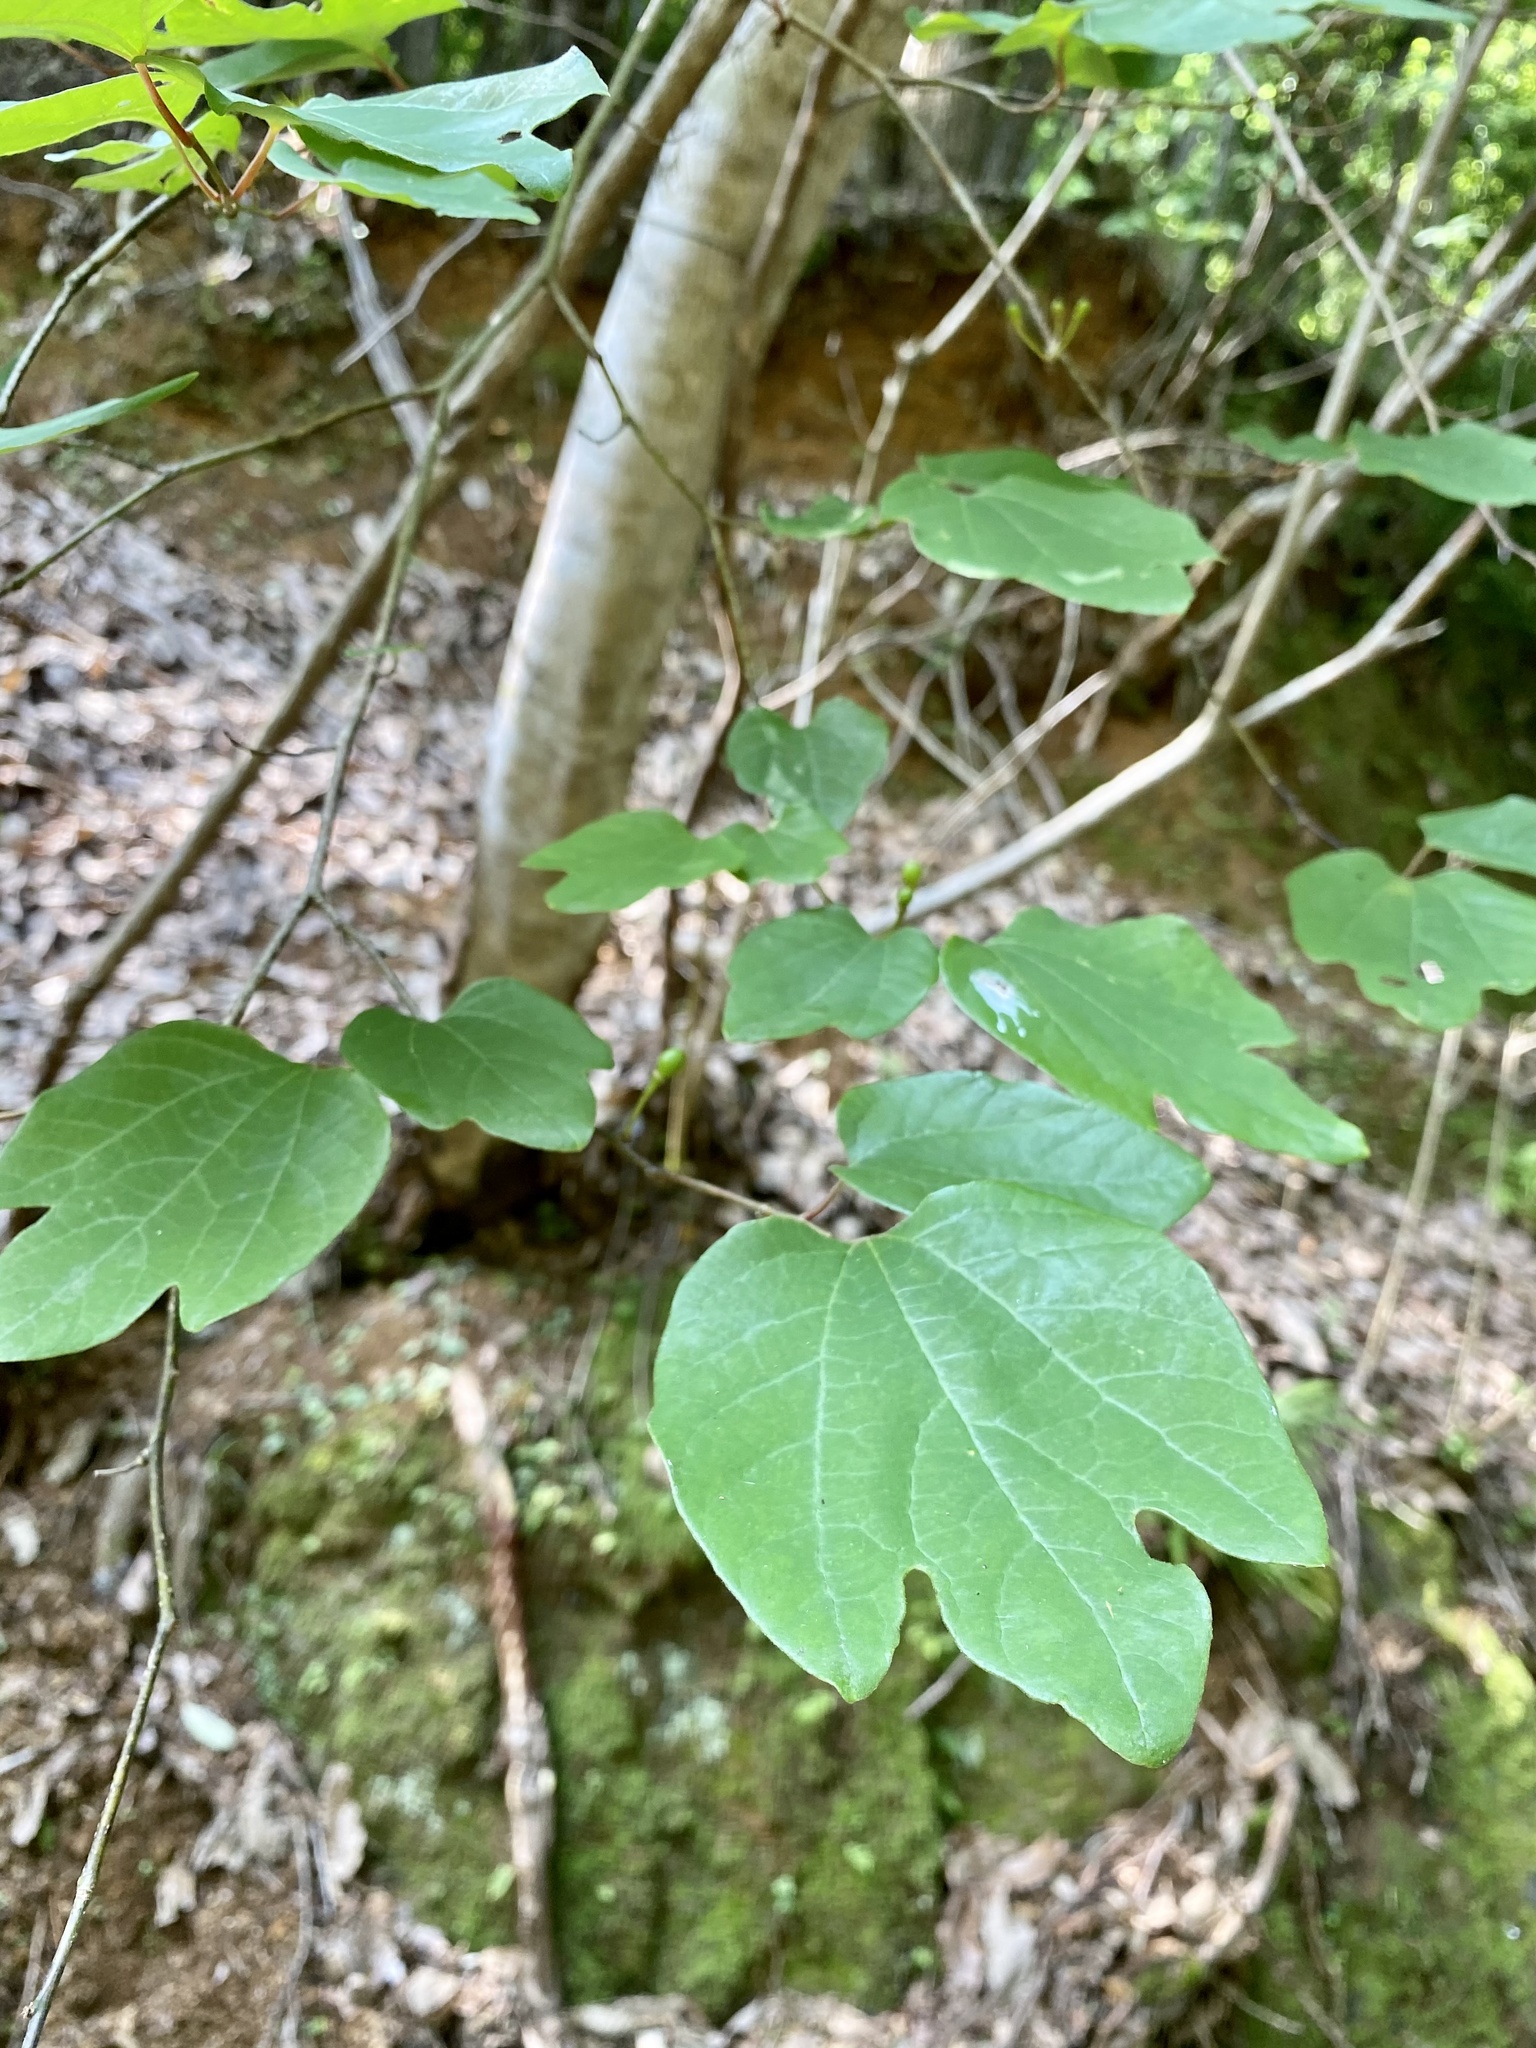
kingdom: Plantae
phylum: Tracheophyta
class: Magnoliopsida
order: Laurales
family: Lauraceae
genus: Lindera
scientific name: Lindera obtusiloba
